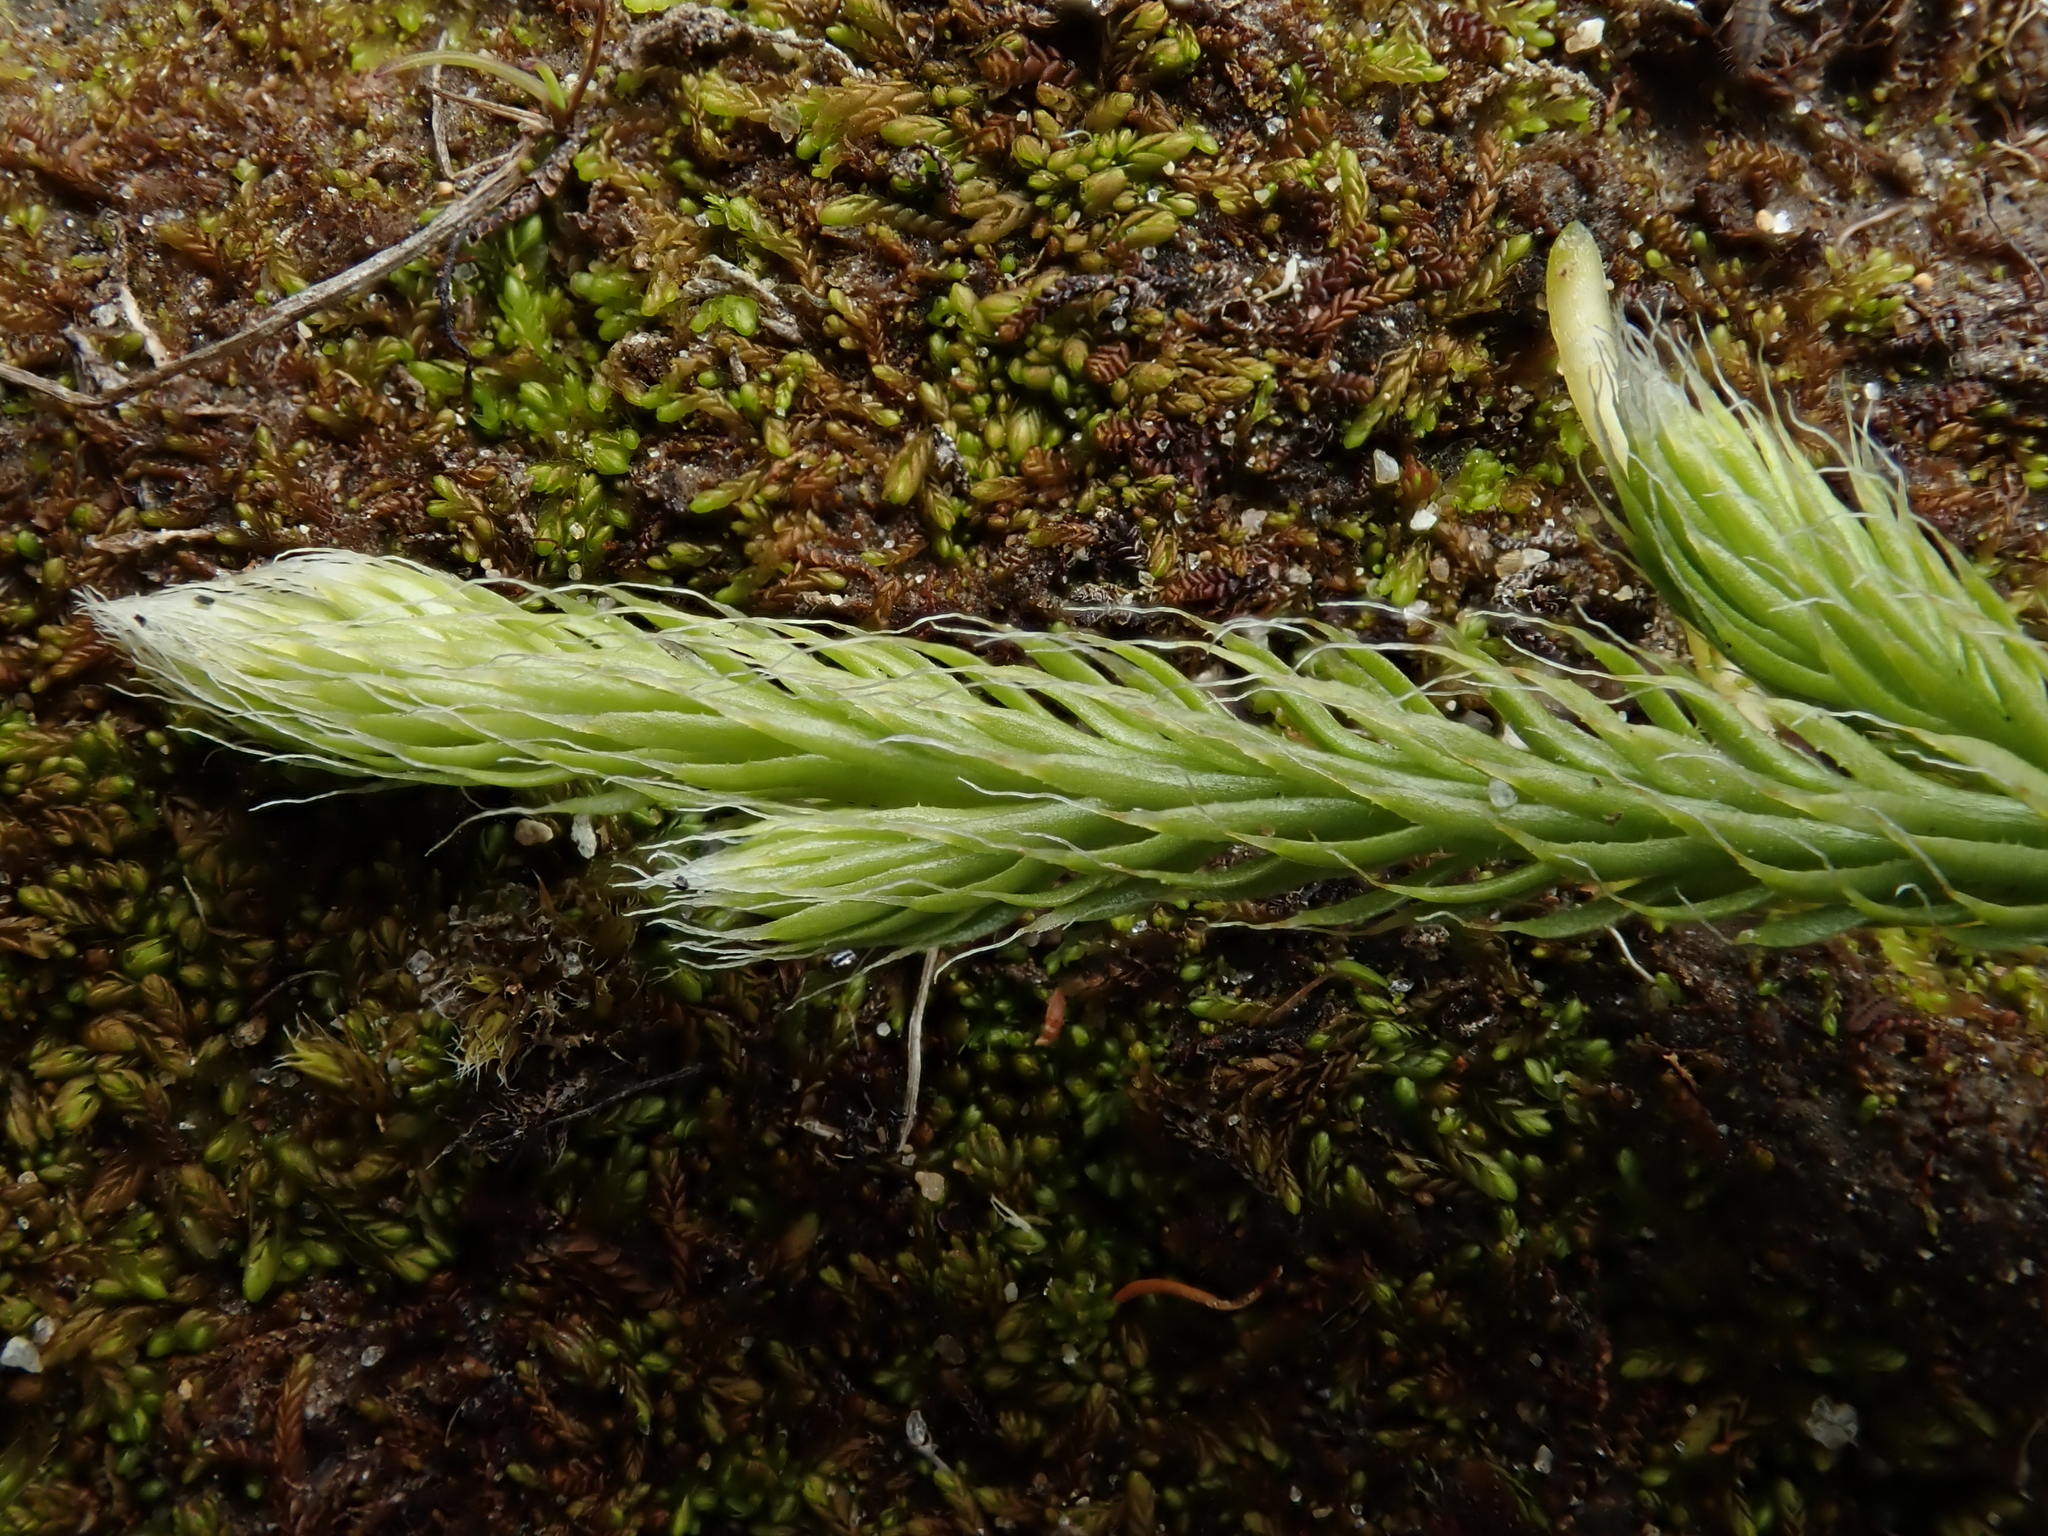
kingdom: Plantae
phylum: Tracheophyta
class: Lycopodiopsida
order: Lycopodiales
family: Lycopodiaceae
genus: Lycopodium
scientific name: Lycopodium clavatum
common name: Stag's-horn clubmoss
